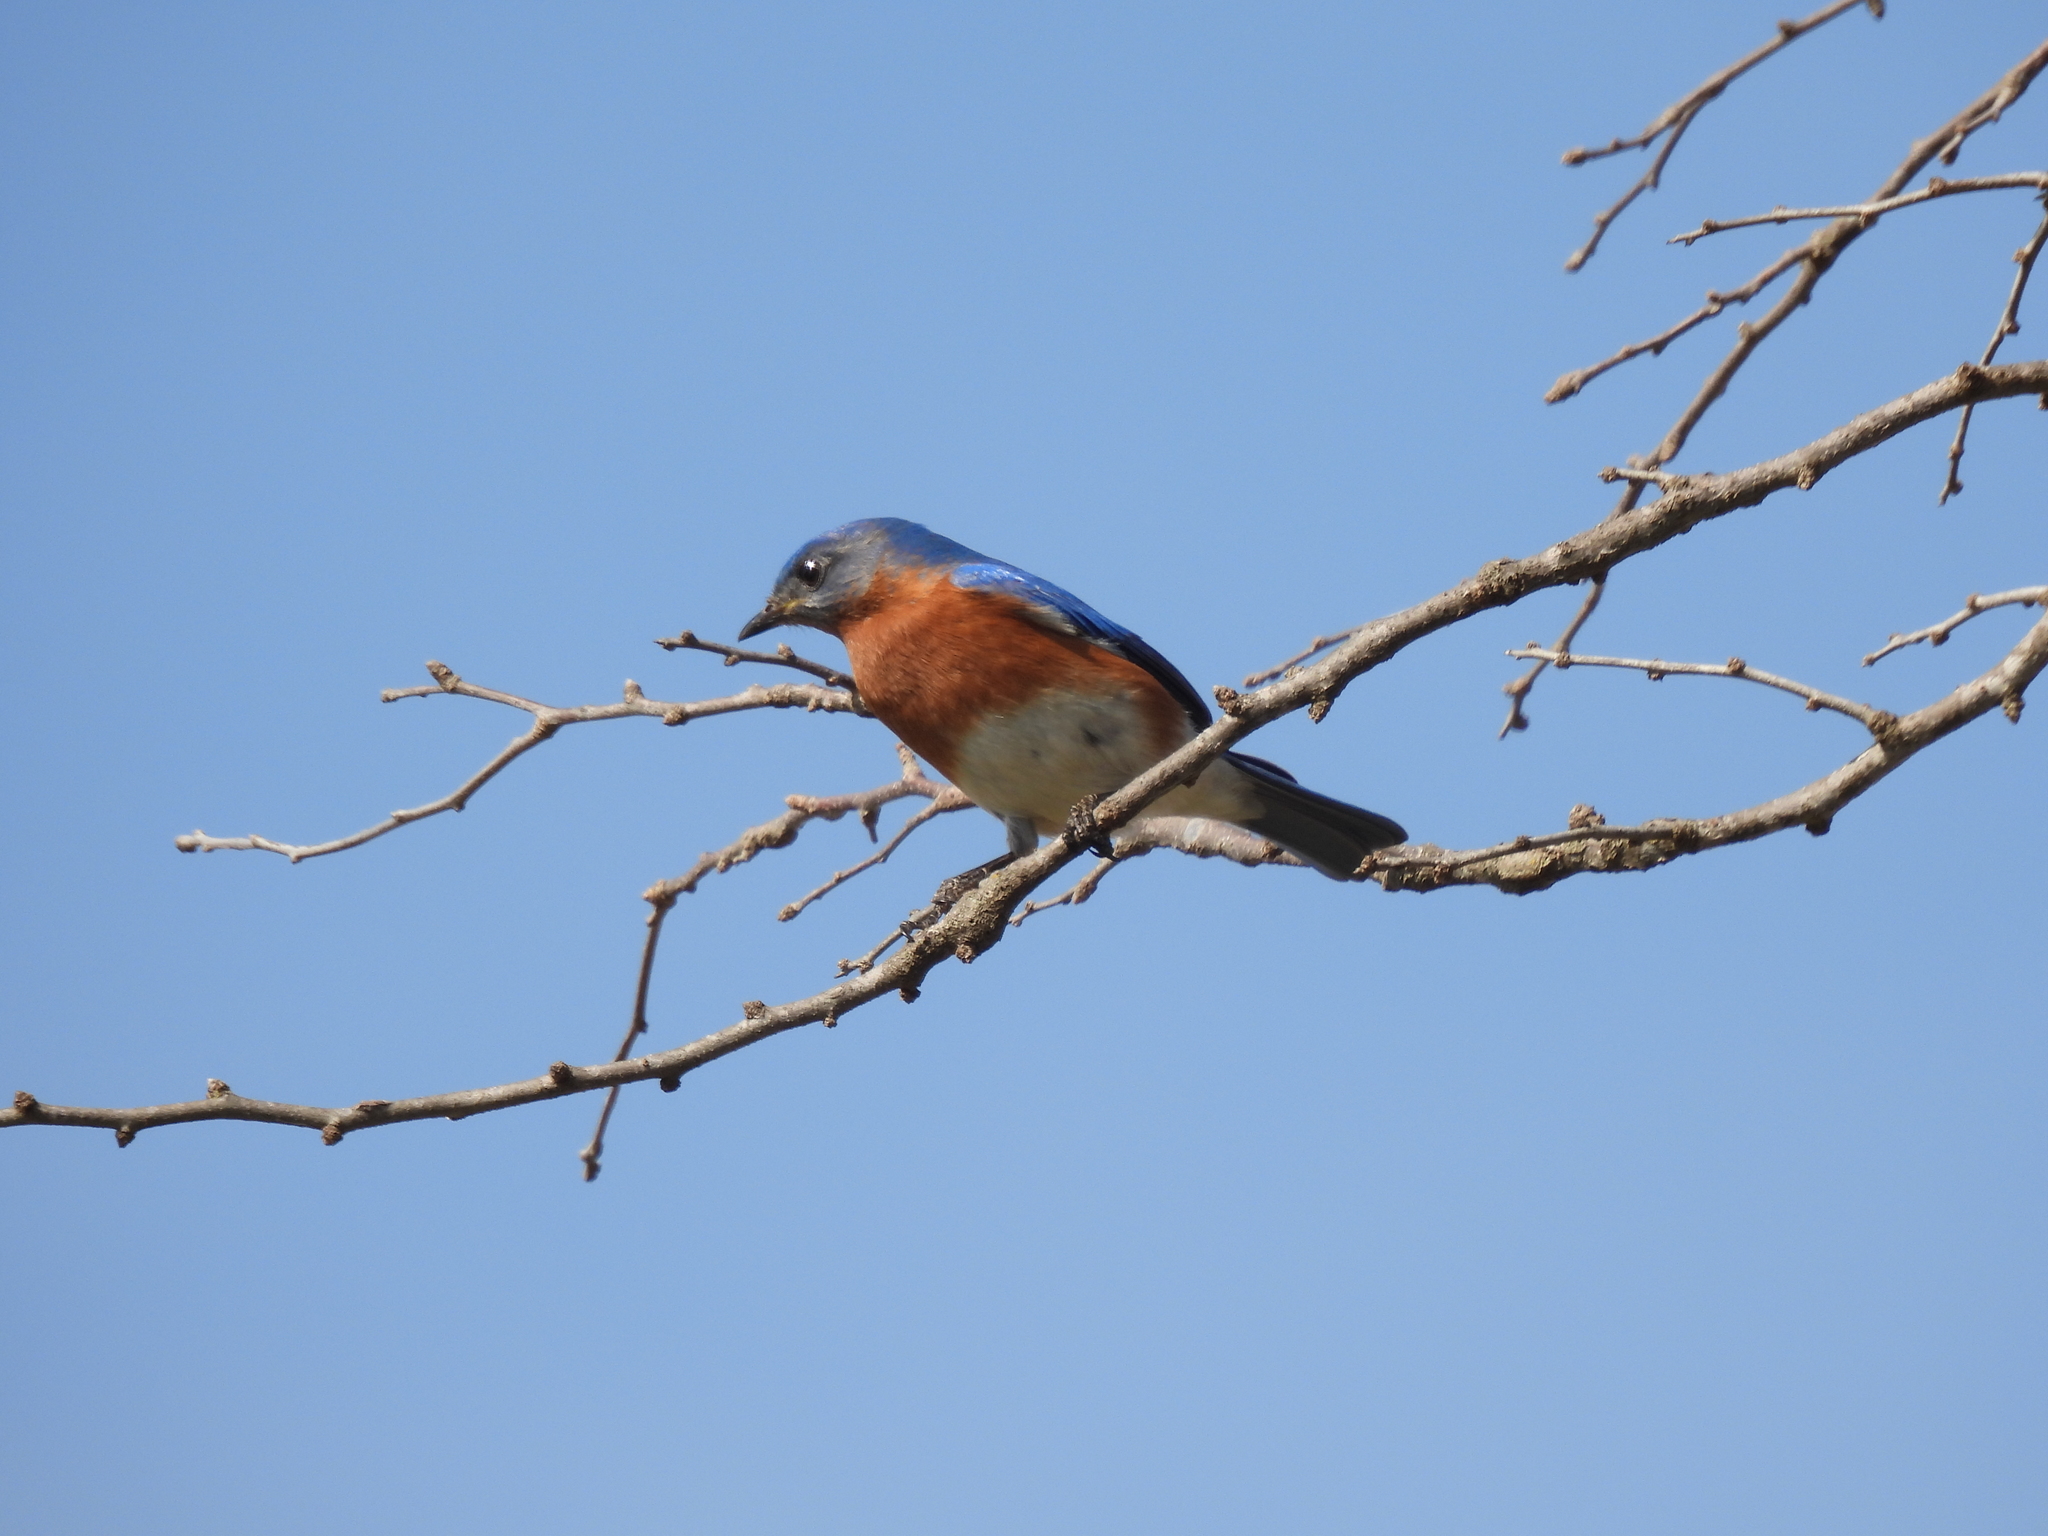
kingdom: Animalia
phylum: Chordata
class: Aves
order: Passeriformes
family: Turdidae
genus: Sialia
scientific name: Sialia sialis
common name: Eastern bluebird
